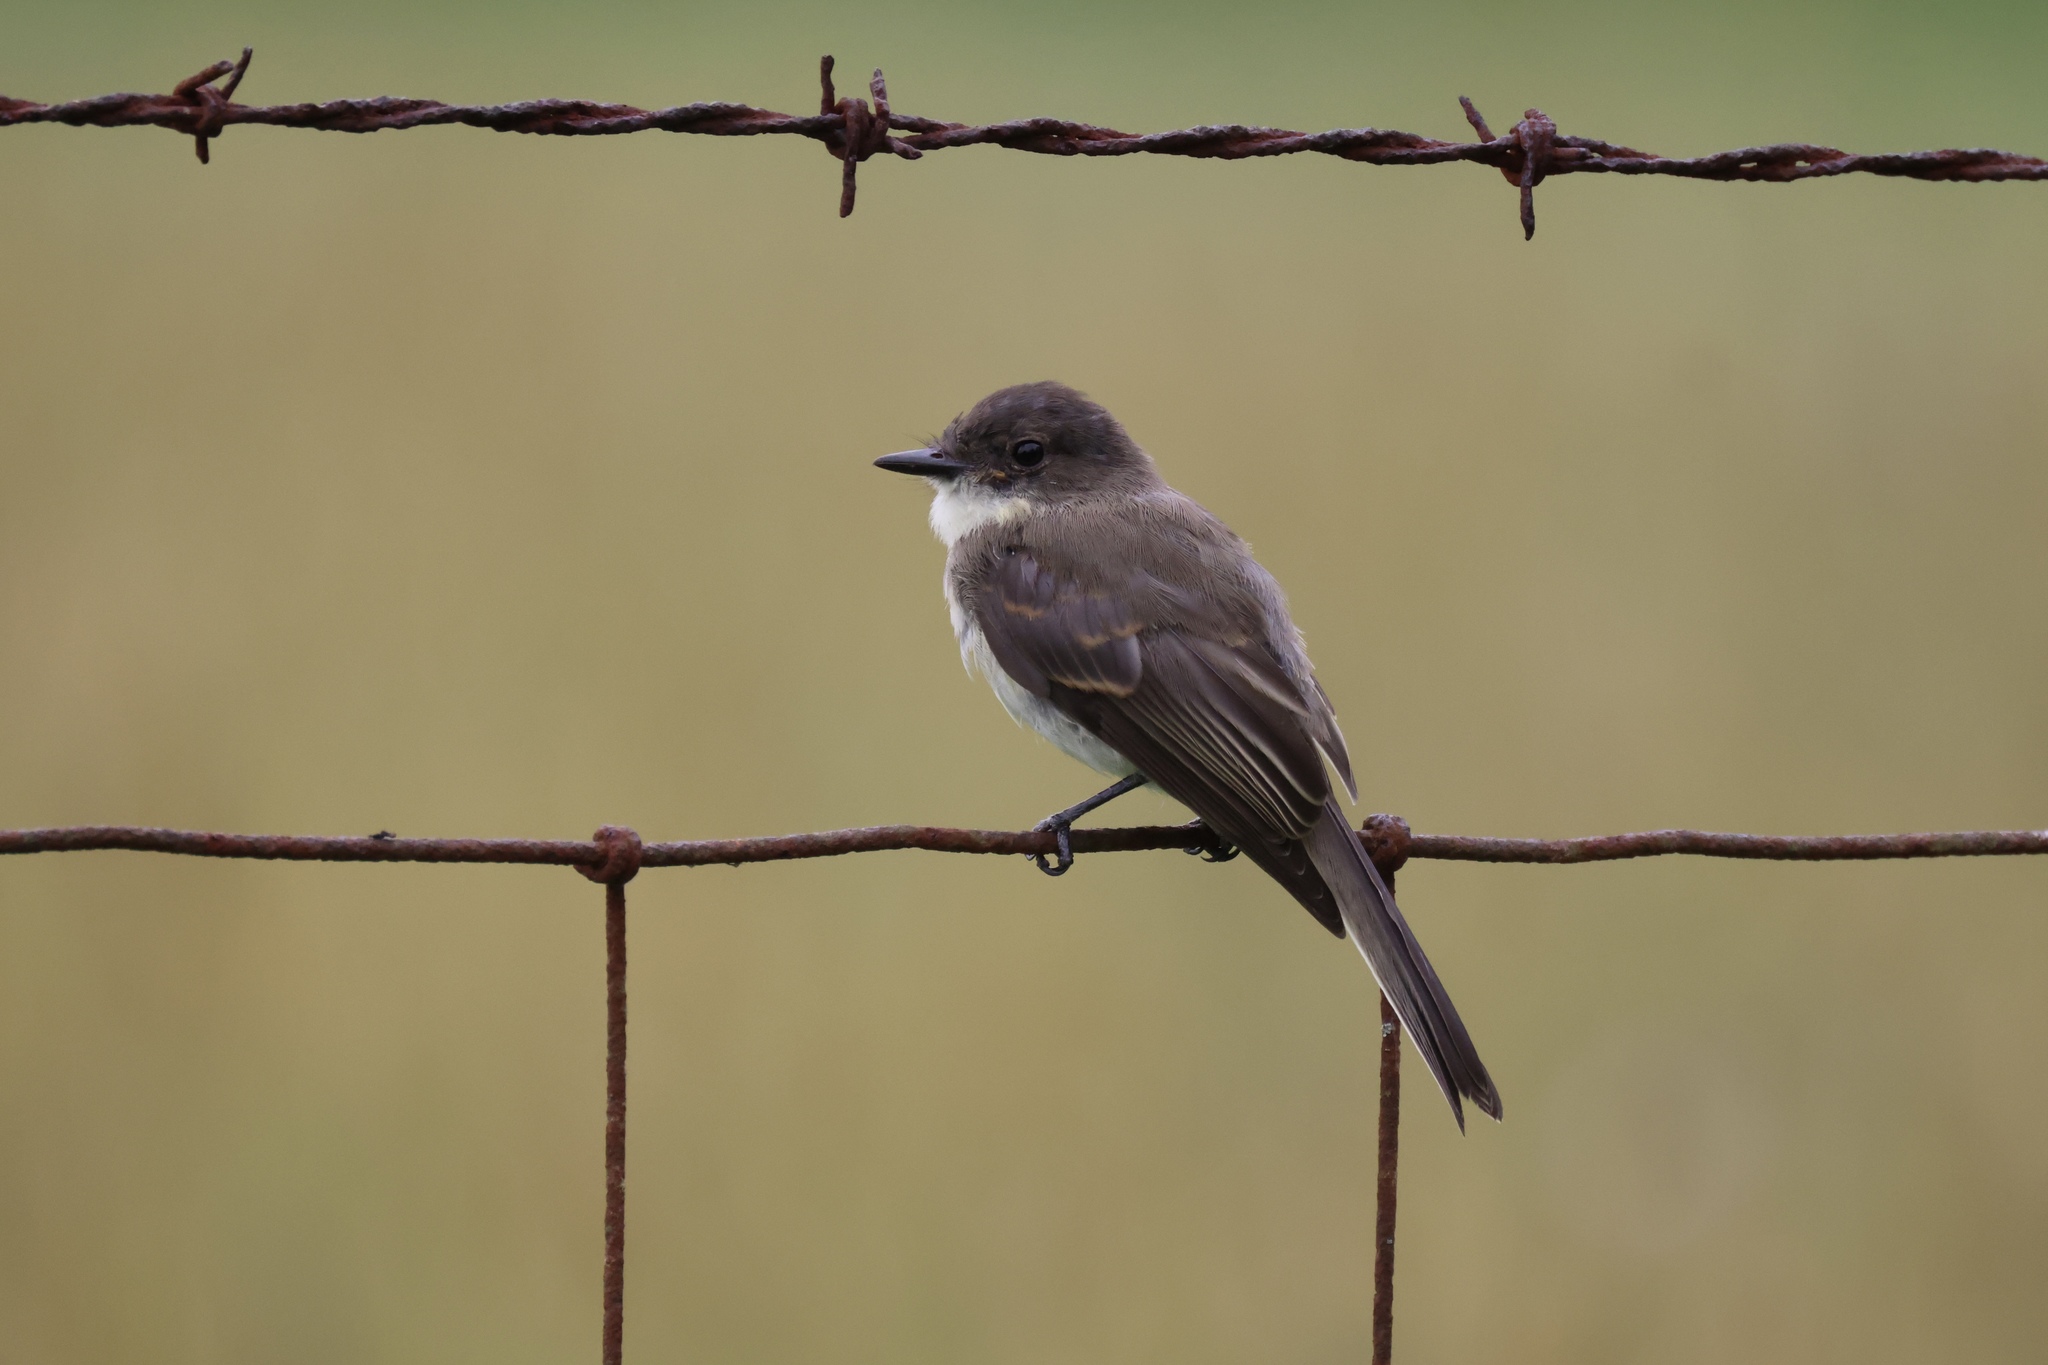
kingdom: Animalia
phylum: Chordata
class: Aves
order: Passeriformes
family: Tyrannidae
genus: Sayornis
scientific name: Sayornis phoebe
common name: Eastern phoebe
